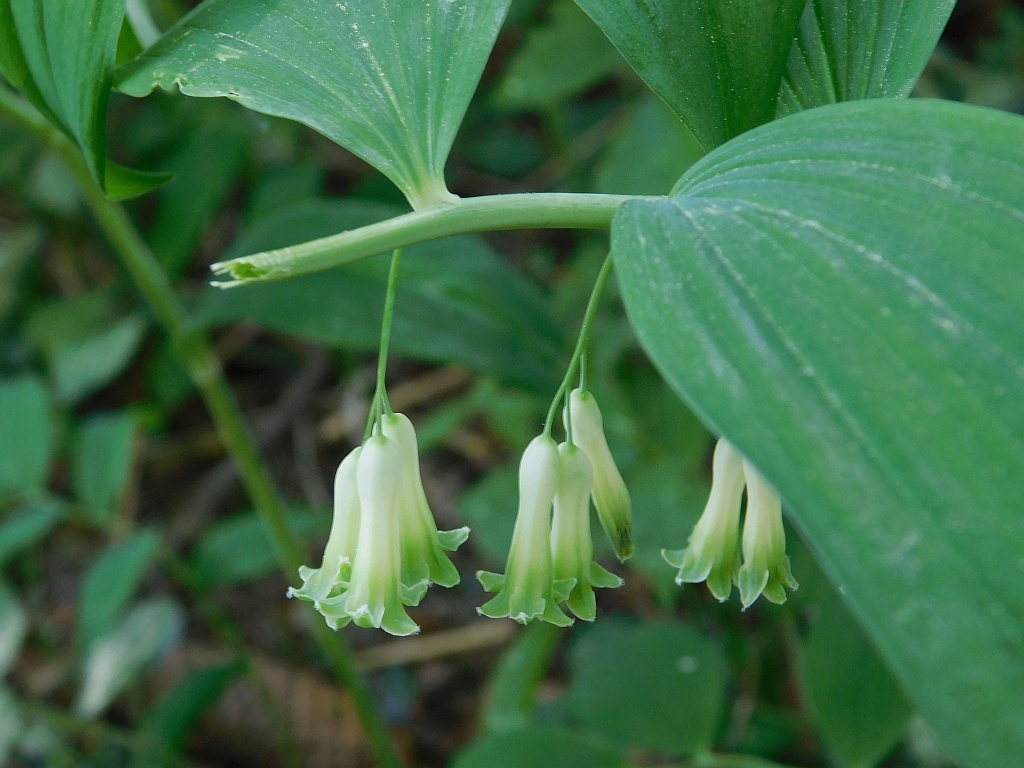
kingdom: Plantae
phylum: Tracheophyta
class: Liliopsida
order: Asparagales
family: Asparagaceae
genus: Polygonatum
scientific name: Polygonatum multiflorum
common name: Solomon's-seal
